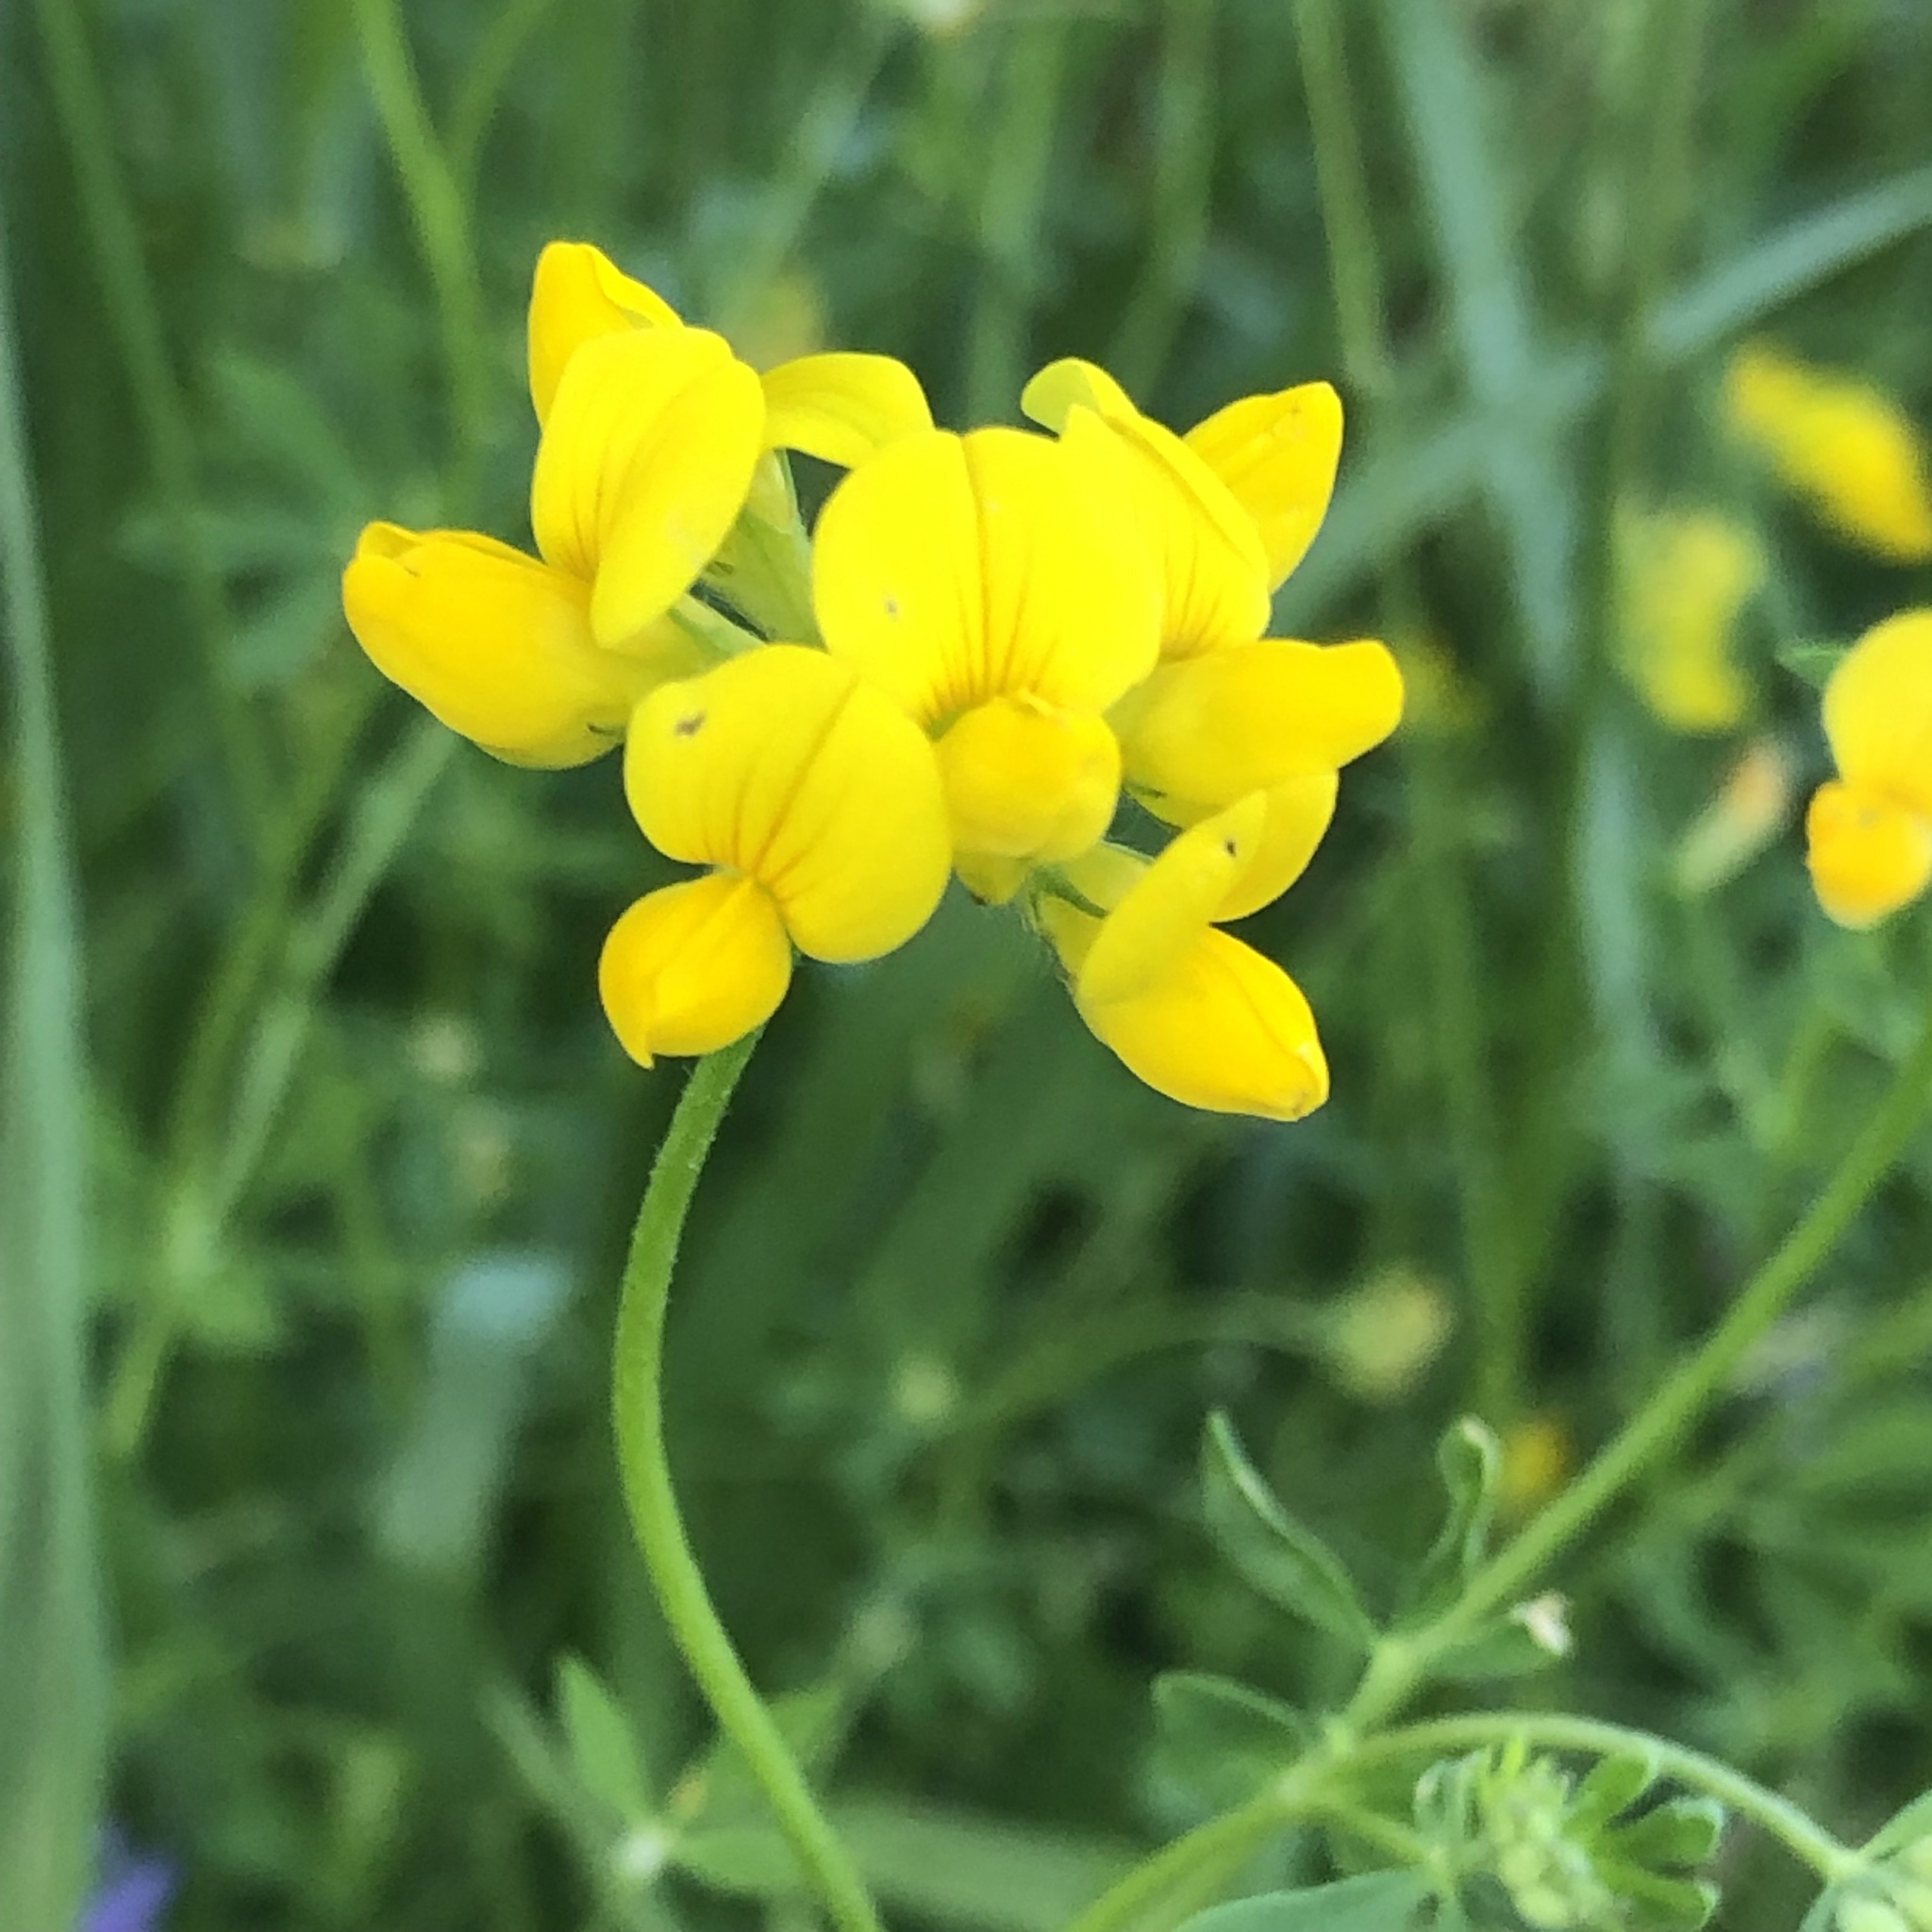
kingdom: Plantae
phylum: Tracheophyta
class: Magnoliopsida
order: Fabales
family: Fabaceae
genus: Lotus
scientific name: Lotus corniculatus
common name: Common bird's-foot-trefoil
